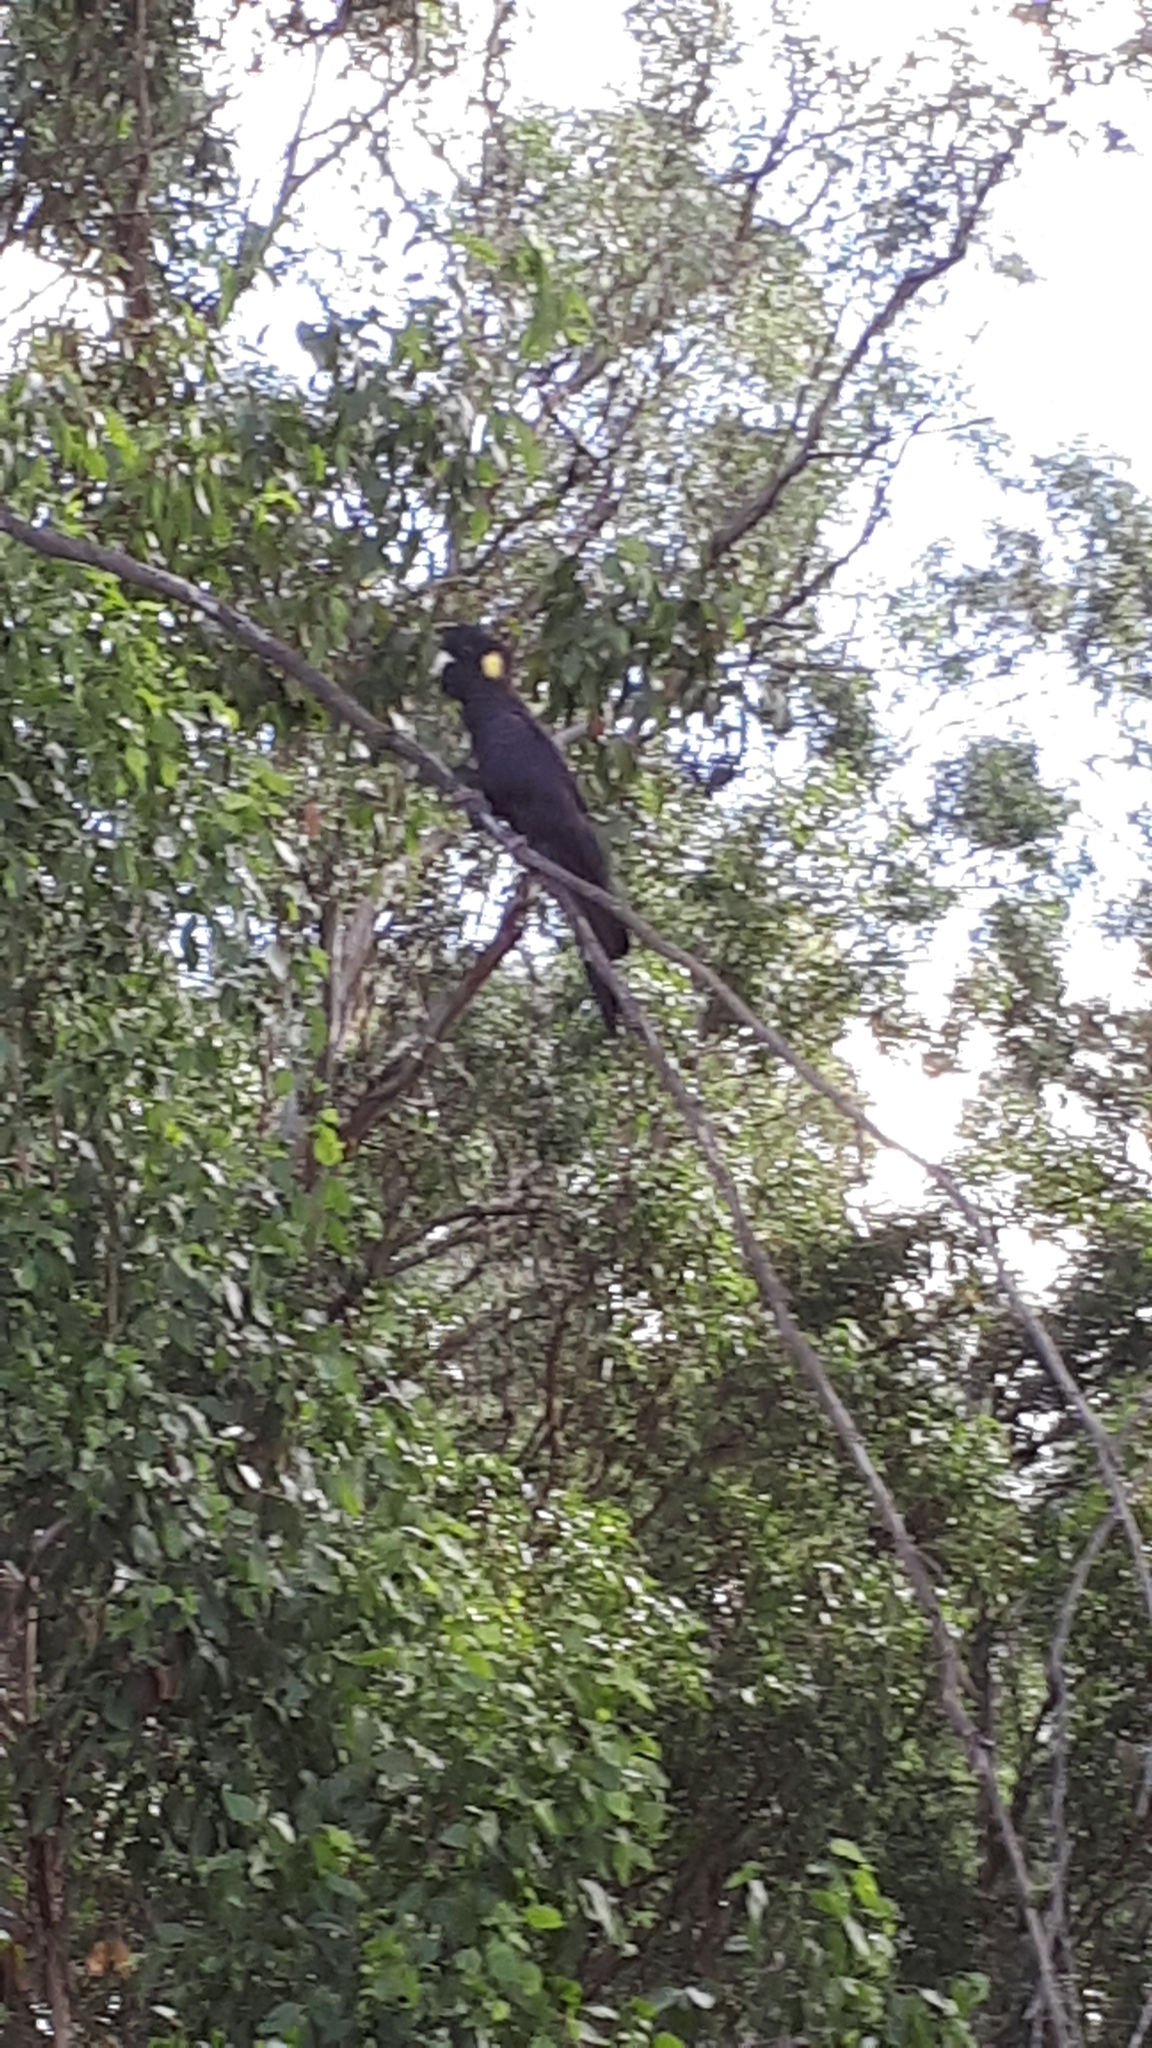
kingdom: Animalia
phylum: Chordata
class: Aves
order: Psittaciformes
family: Cacatuidae
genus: Zanda
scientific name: Zanda funerea
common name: Yellow-tailed black-cockatoo
